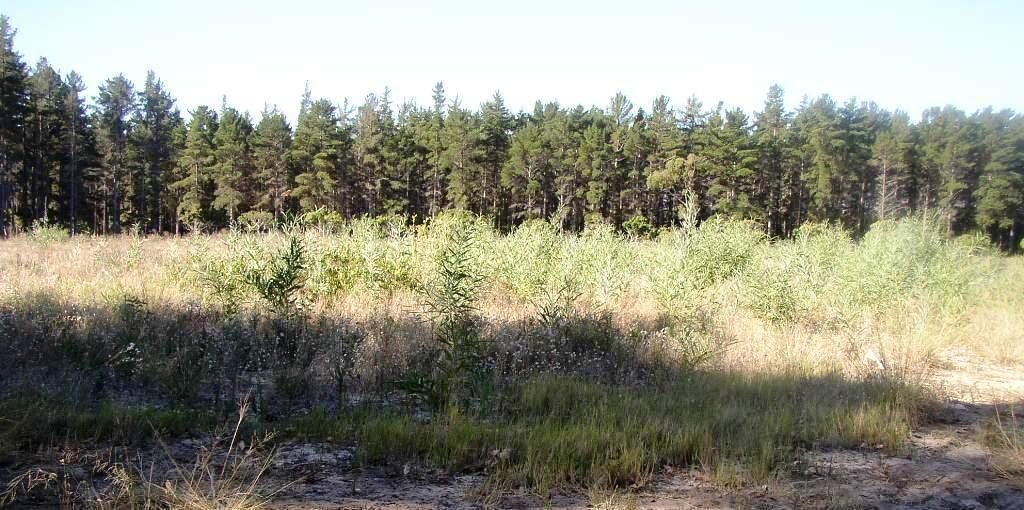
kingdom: Plantae
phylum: Tracheophyta
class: Magnoliopsida
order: Fabales
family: Fabaceae
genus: Acacia
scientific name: Acacia saligna
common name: Orange wattle
